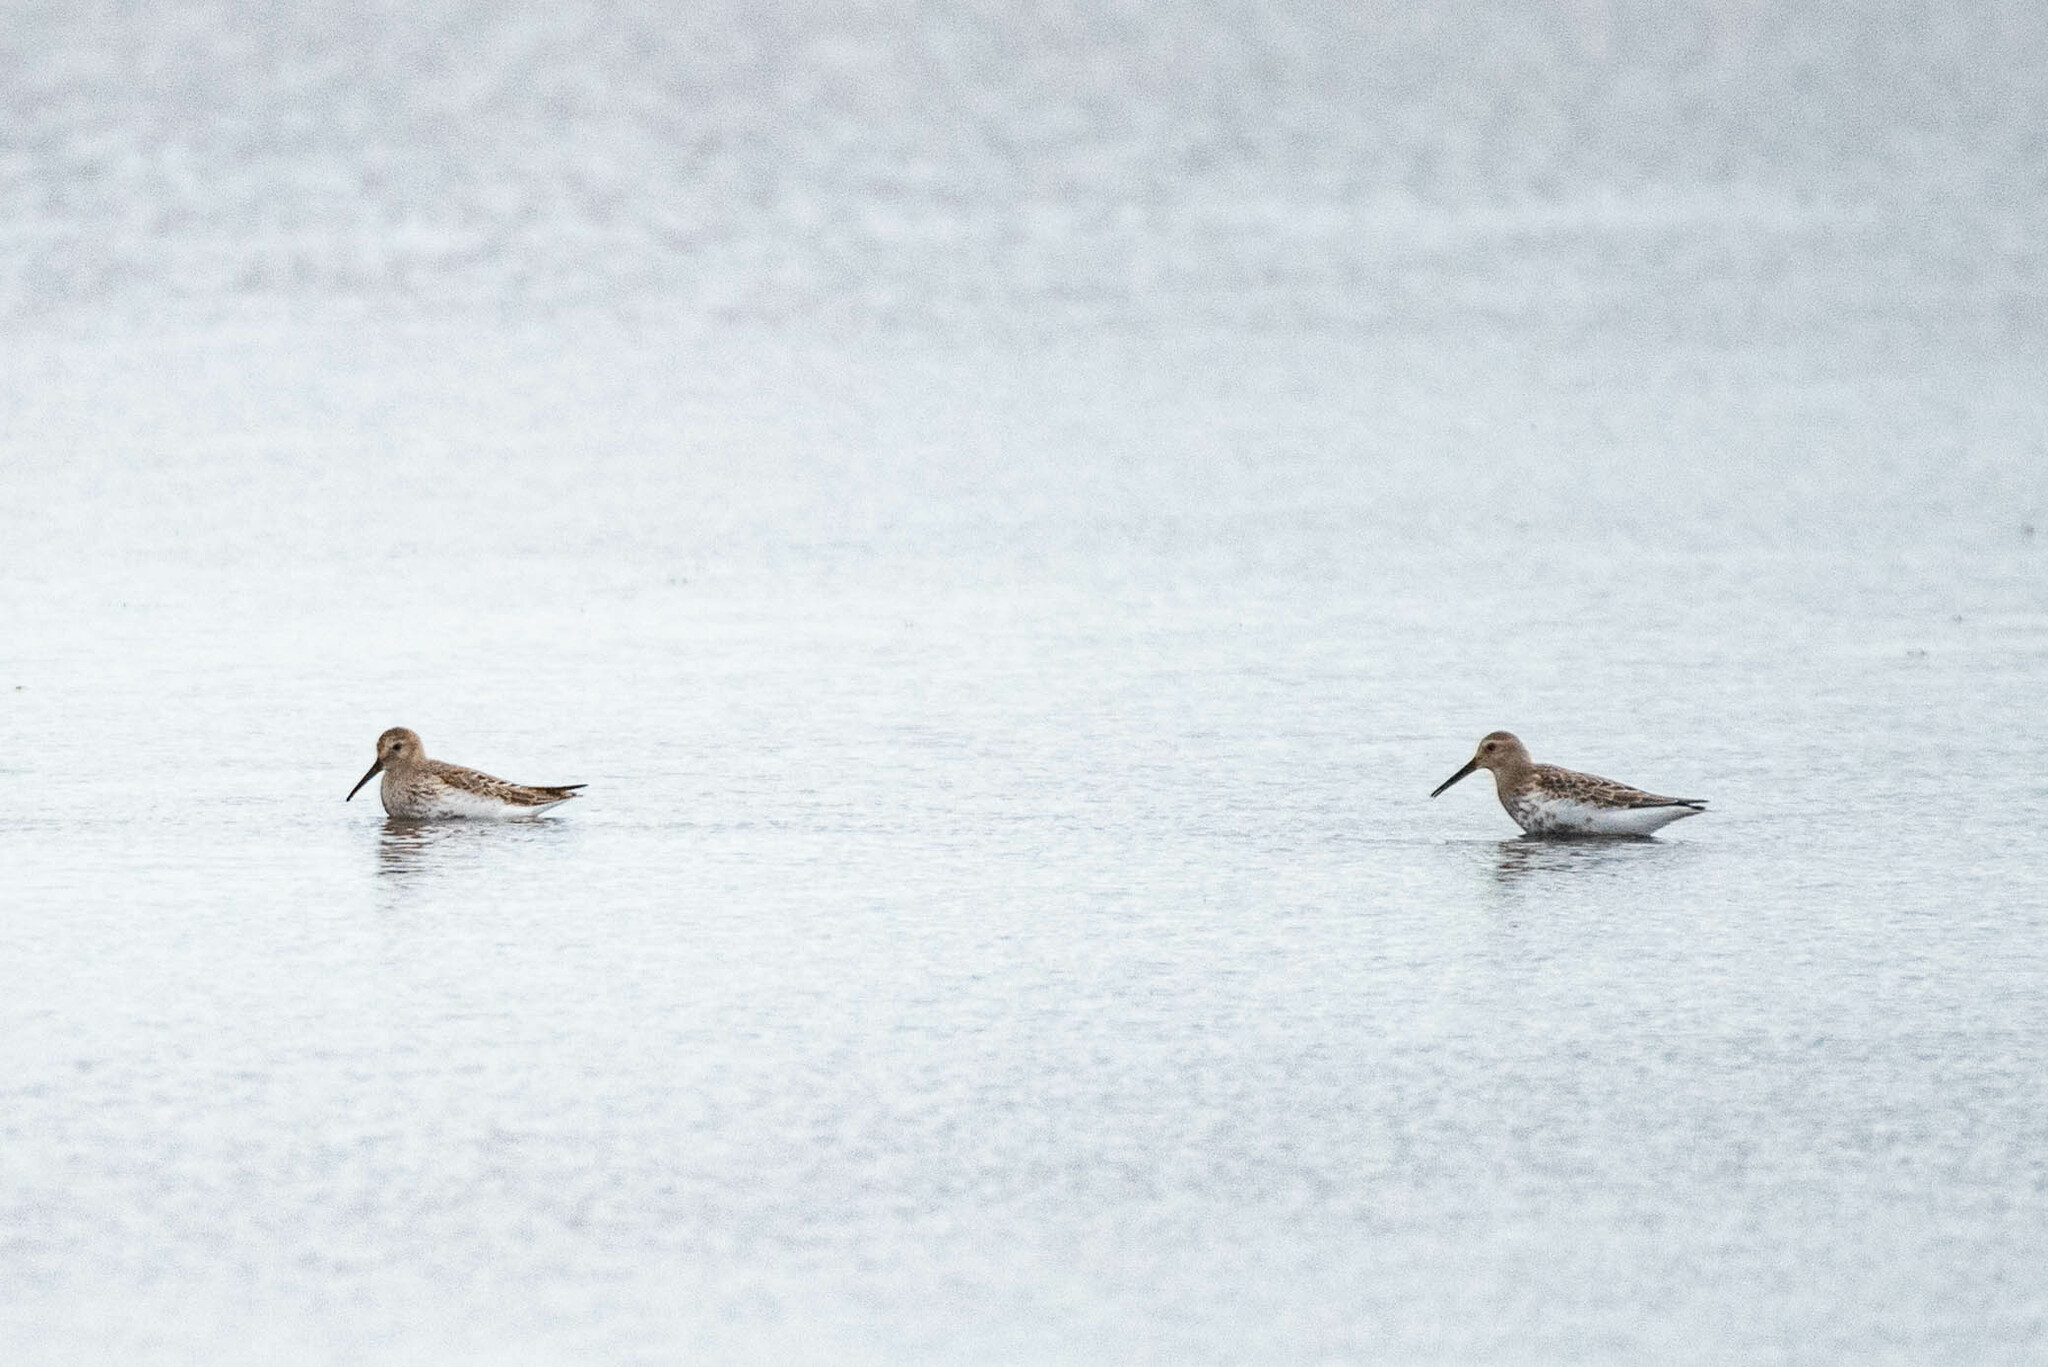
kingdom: Animalia
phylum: Chordata
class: Aves
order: Charadriiformes
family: Scolopacidae
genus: Calidris
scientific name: Calidris alpina
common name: Dunlin
